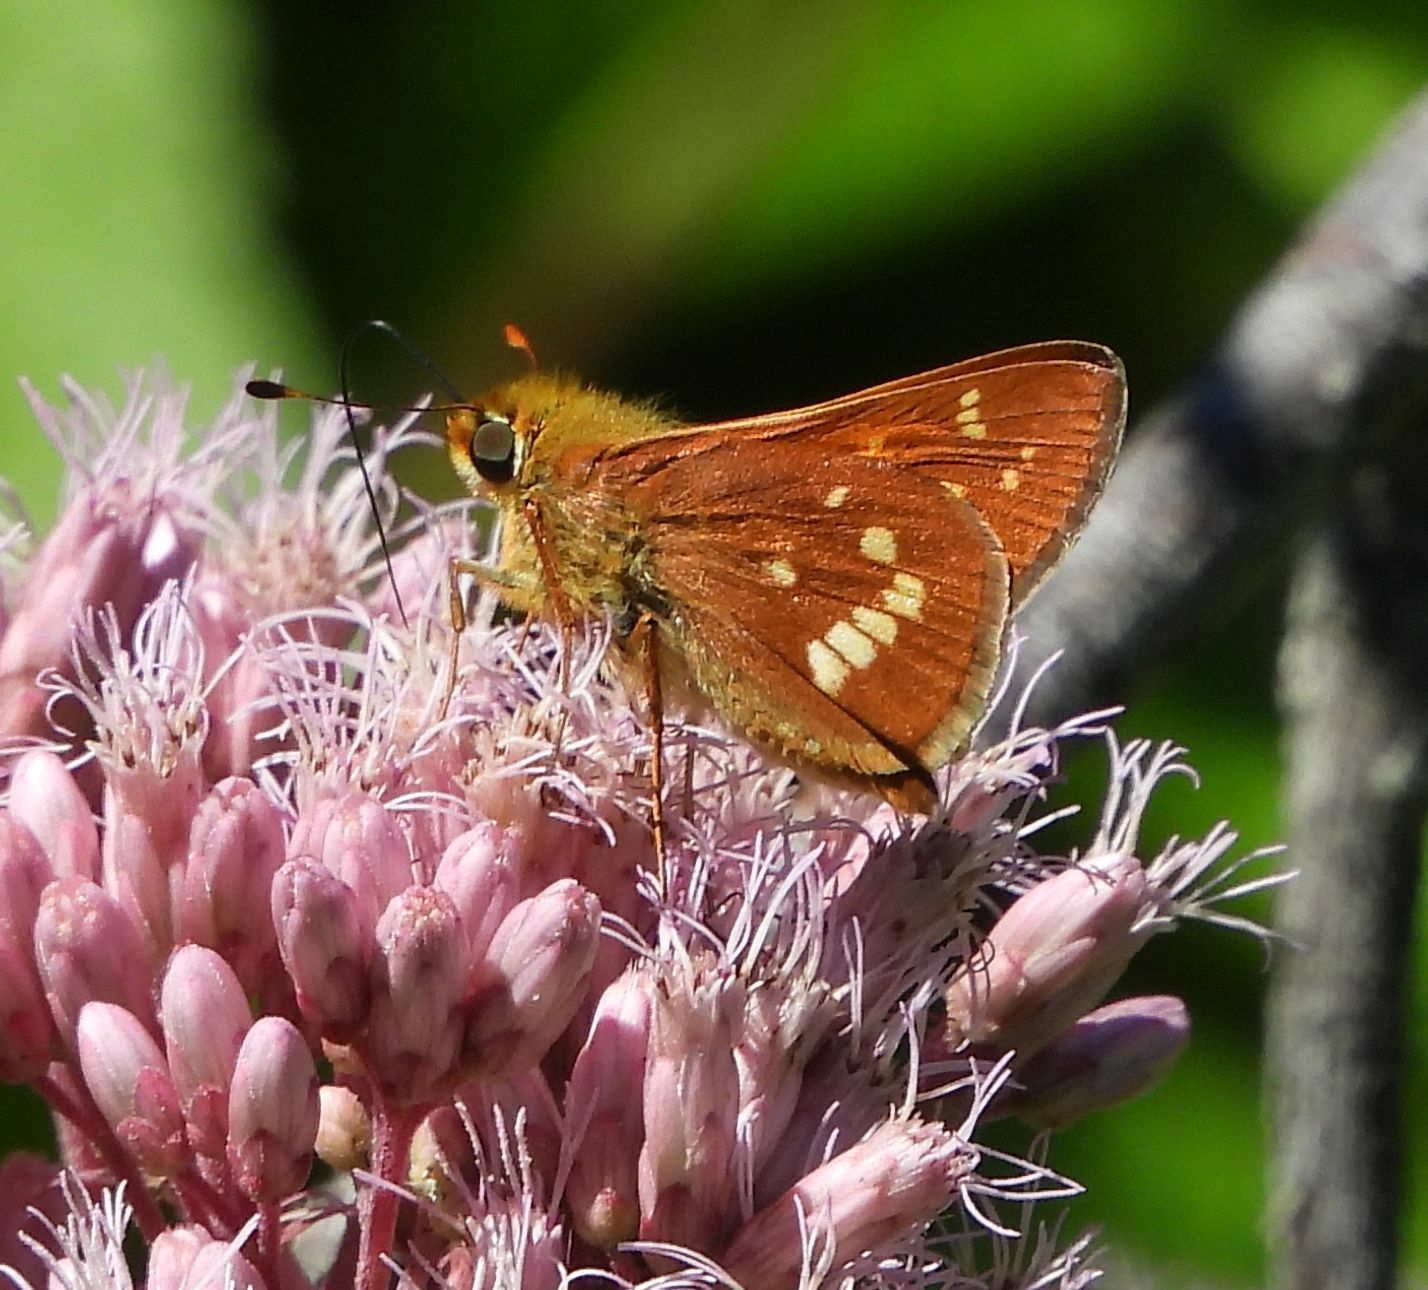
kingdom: Animalia
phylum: Arthropoda
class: Insecta
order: Lepidoptera
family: Hesperiidae
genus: Hesperia
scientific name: Hesperia leonardus
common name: Leonard's skipper
